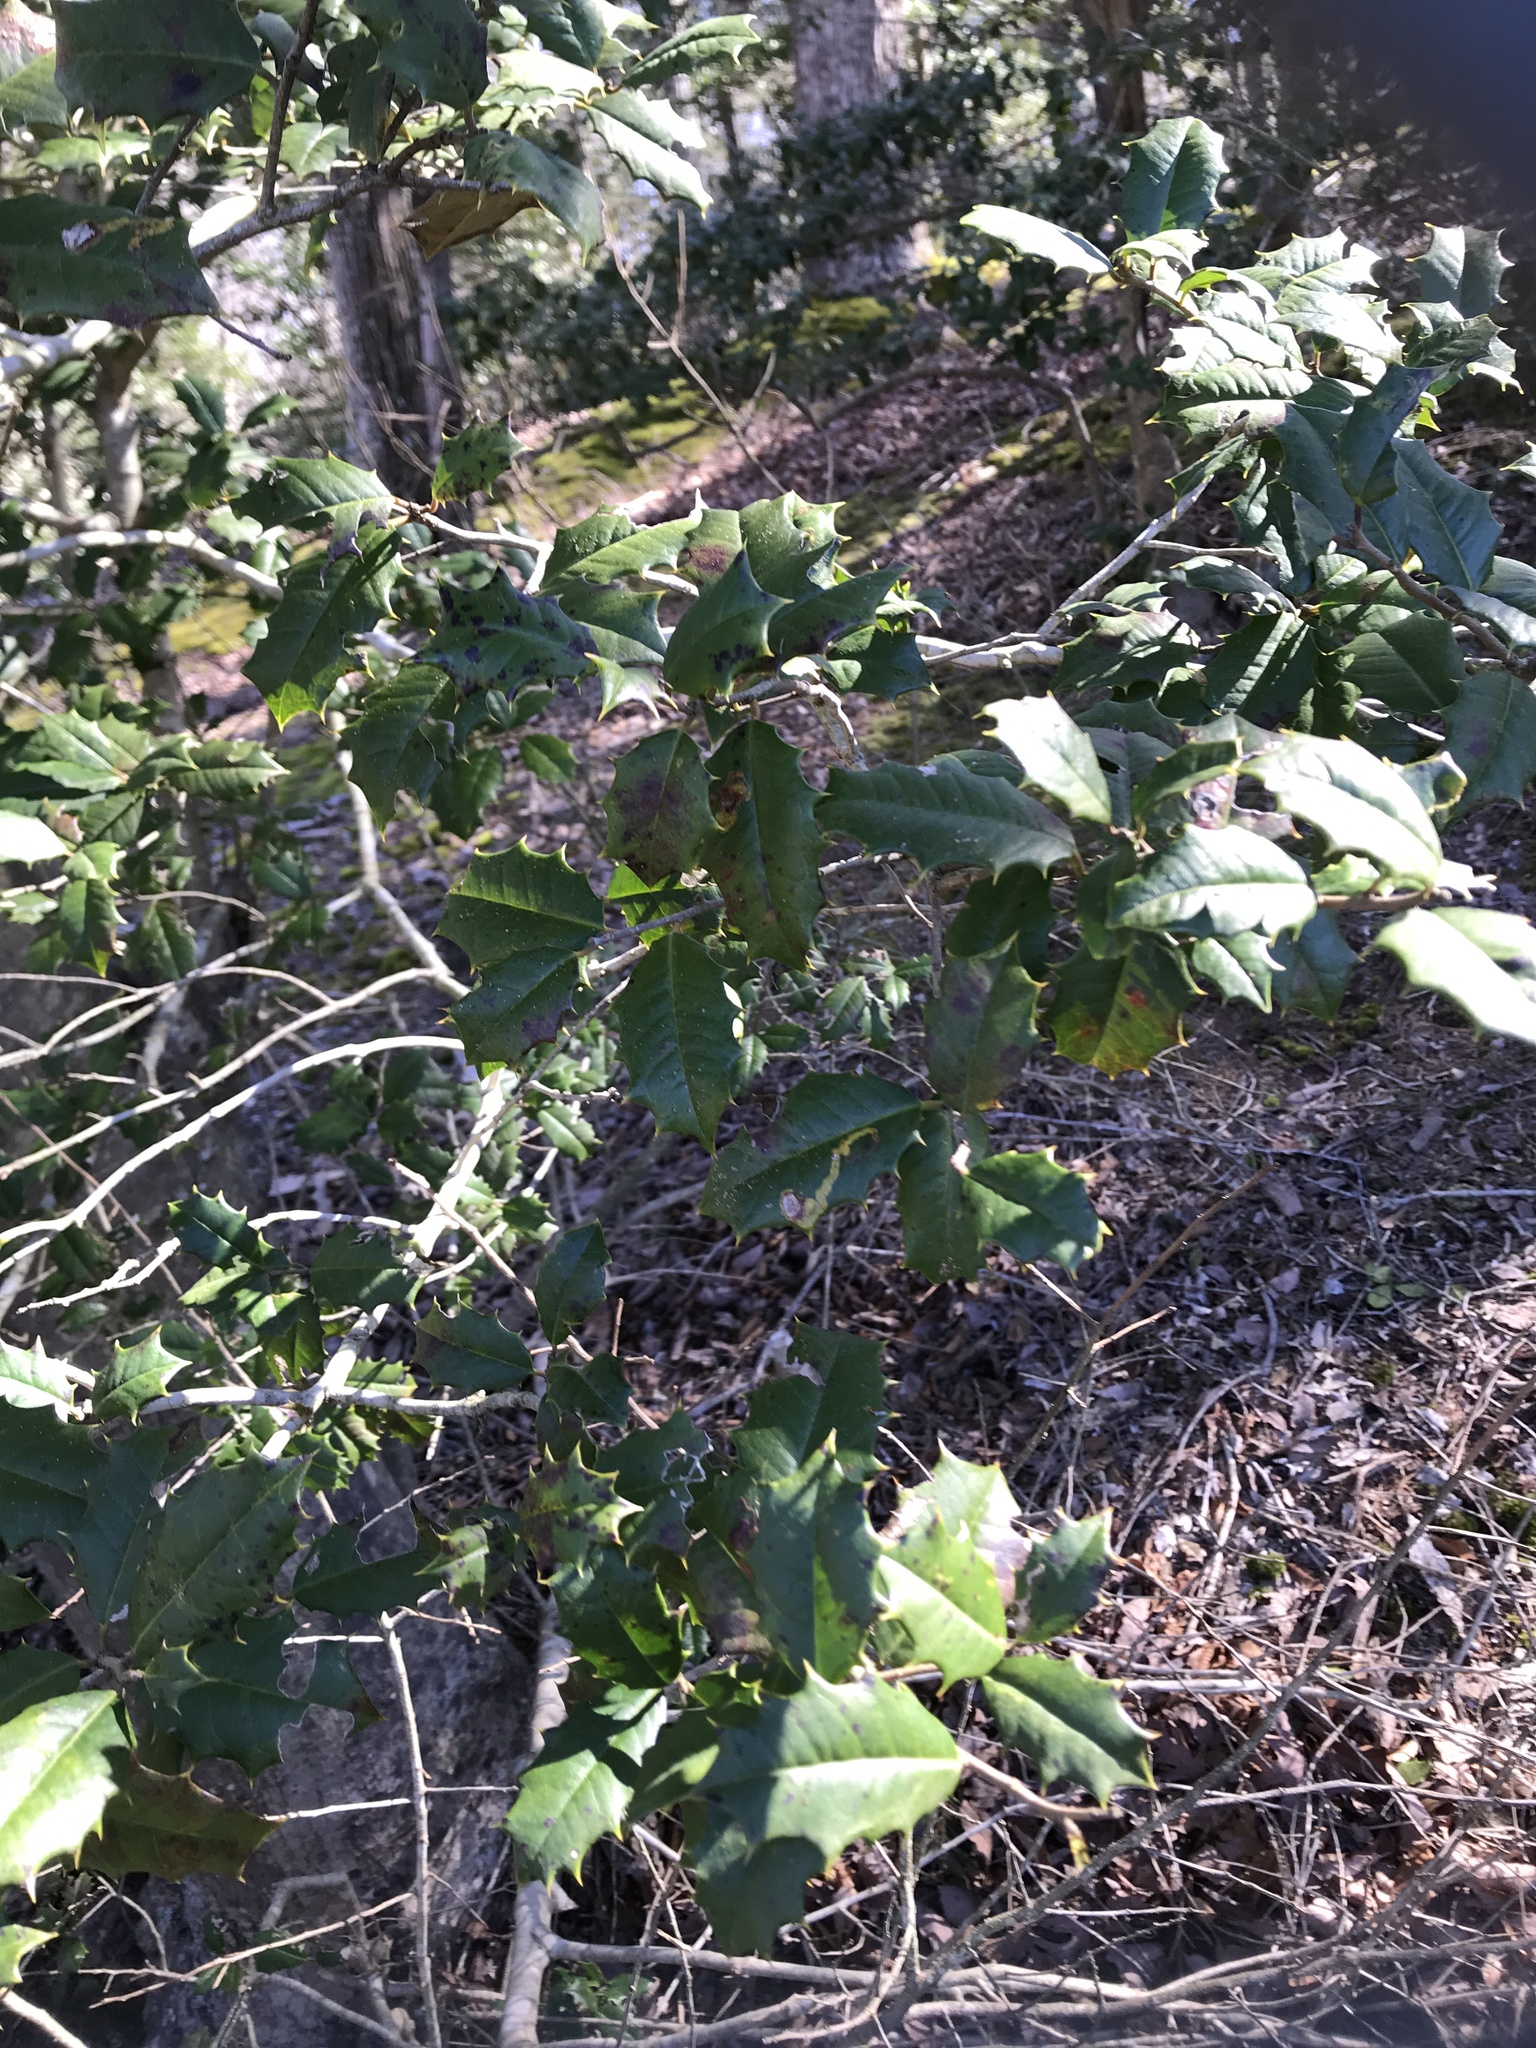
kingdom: Plantae
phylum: Tracheophyta
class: Magnoliopsida
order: Aquifoliales
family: Aquifoliaceae
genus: Ilex
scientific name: Ilex opaca
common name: American holly
